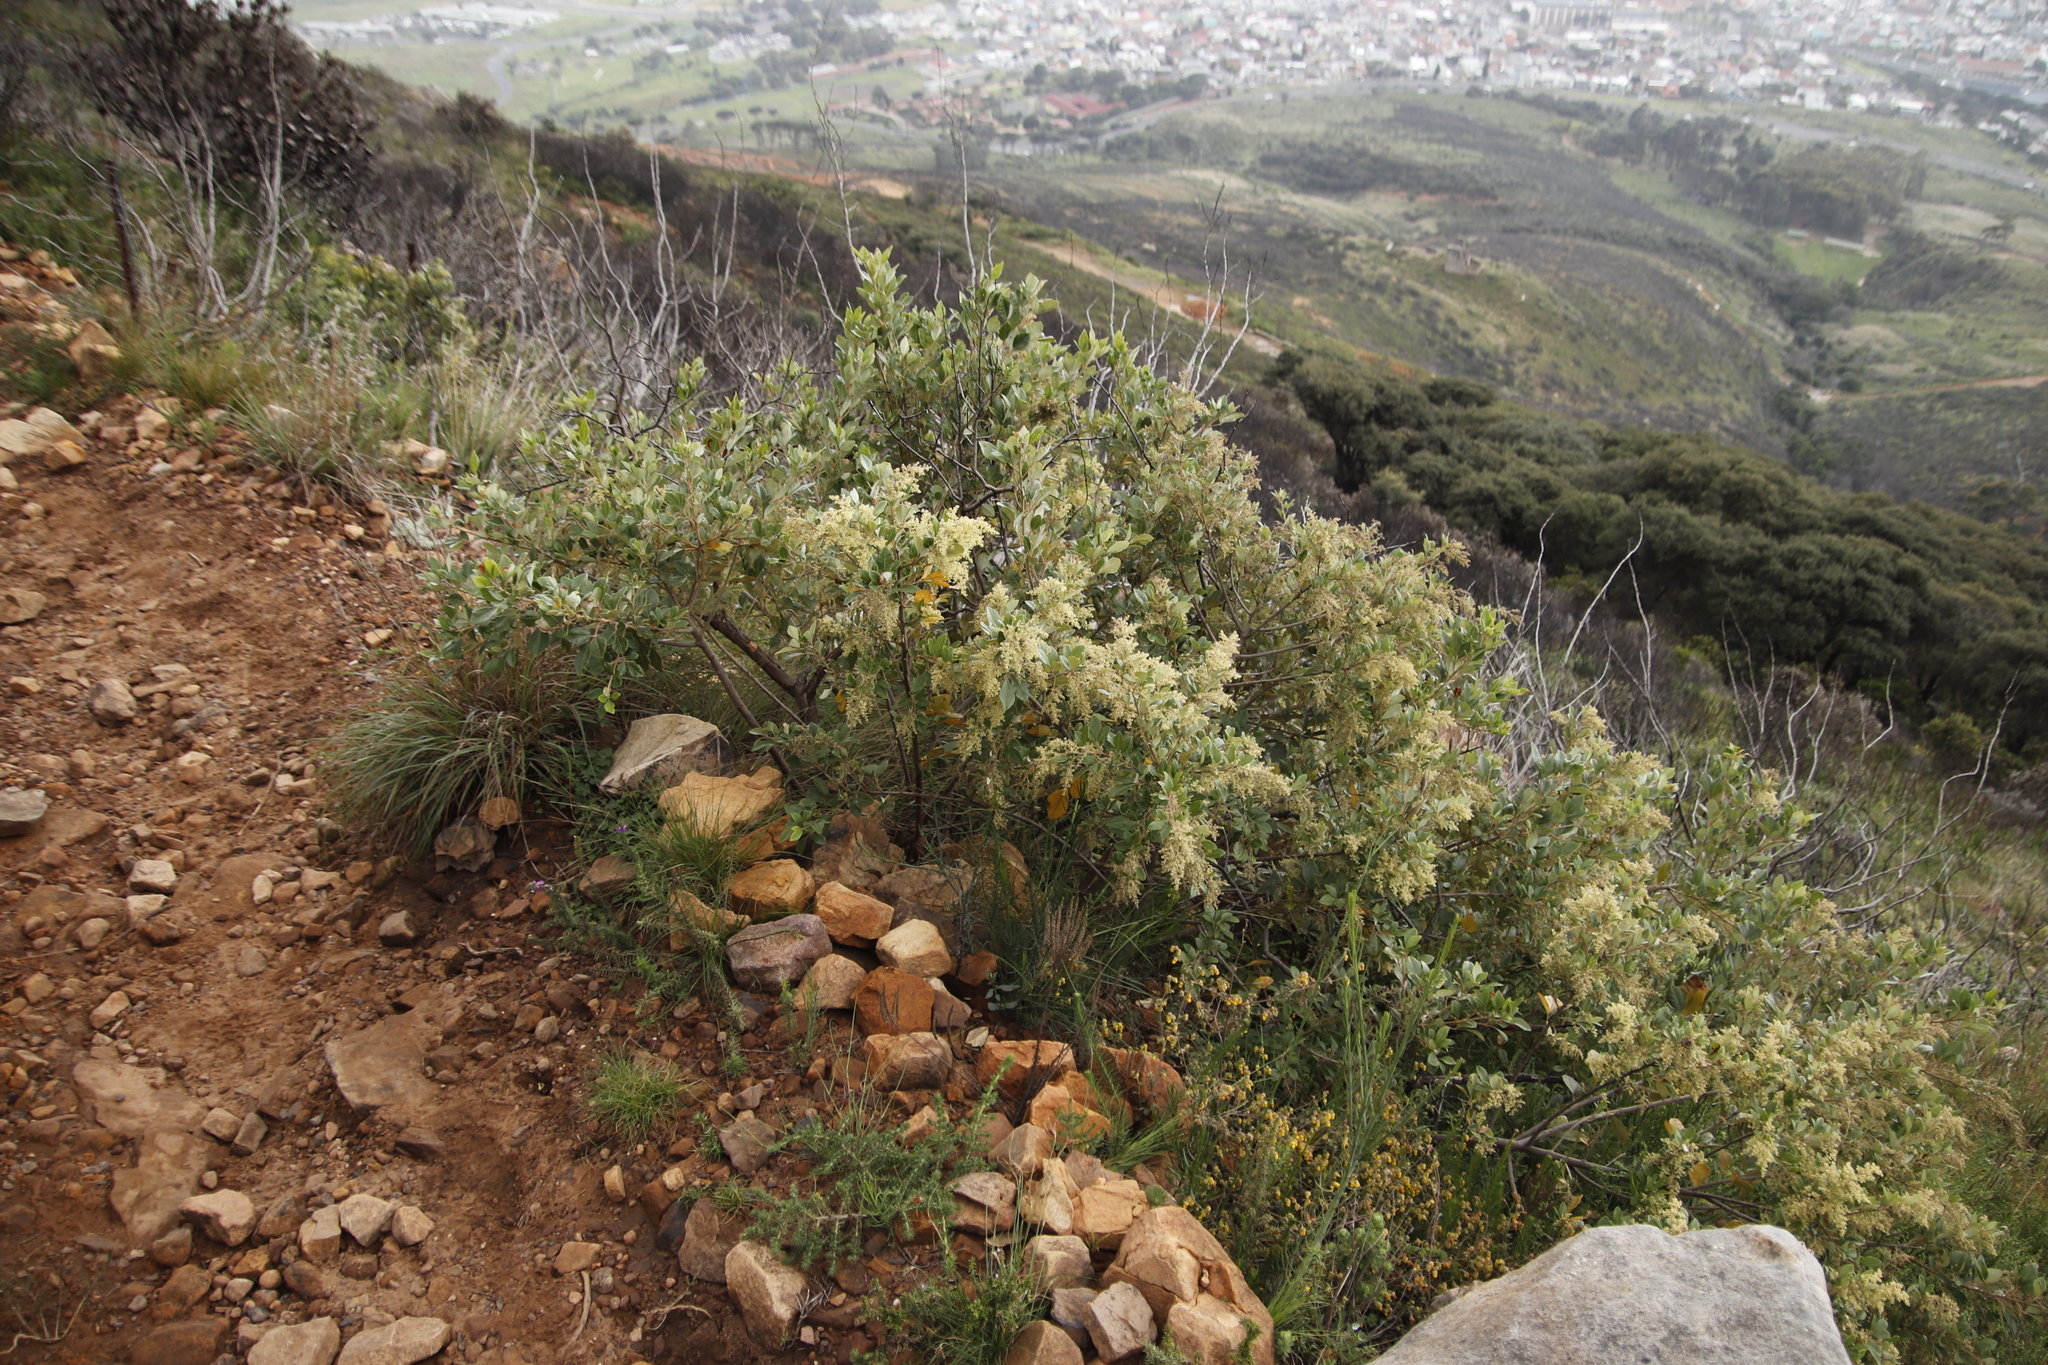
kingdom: Plantae
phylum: Tracheophyta
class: Magnoliopsida
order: Sapindales
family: Anacardiaceae
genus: Searsia
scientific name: Searsia tomentosa
